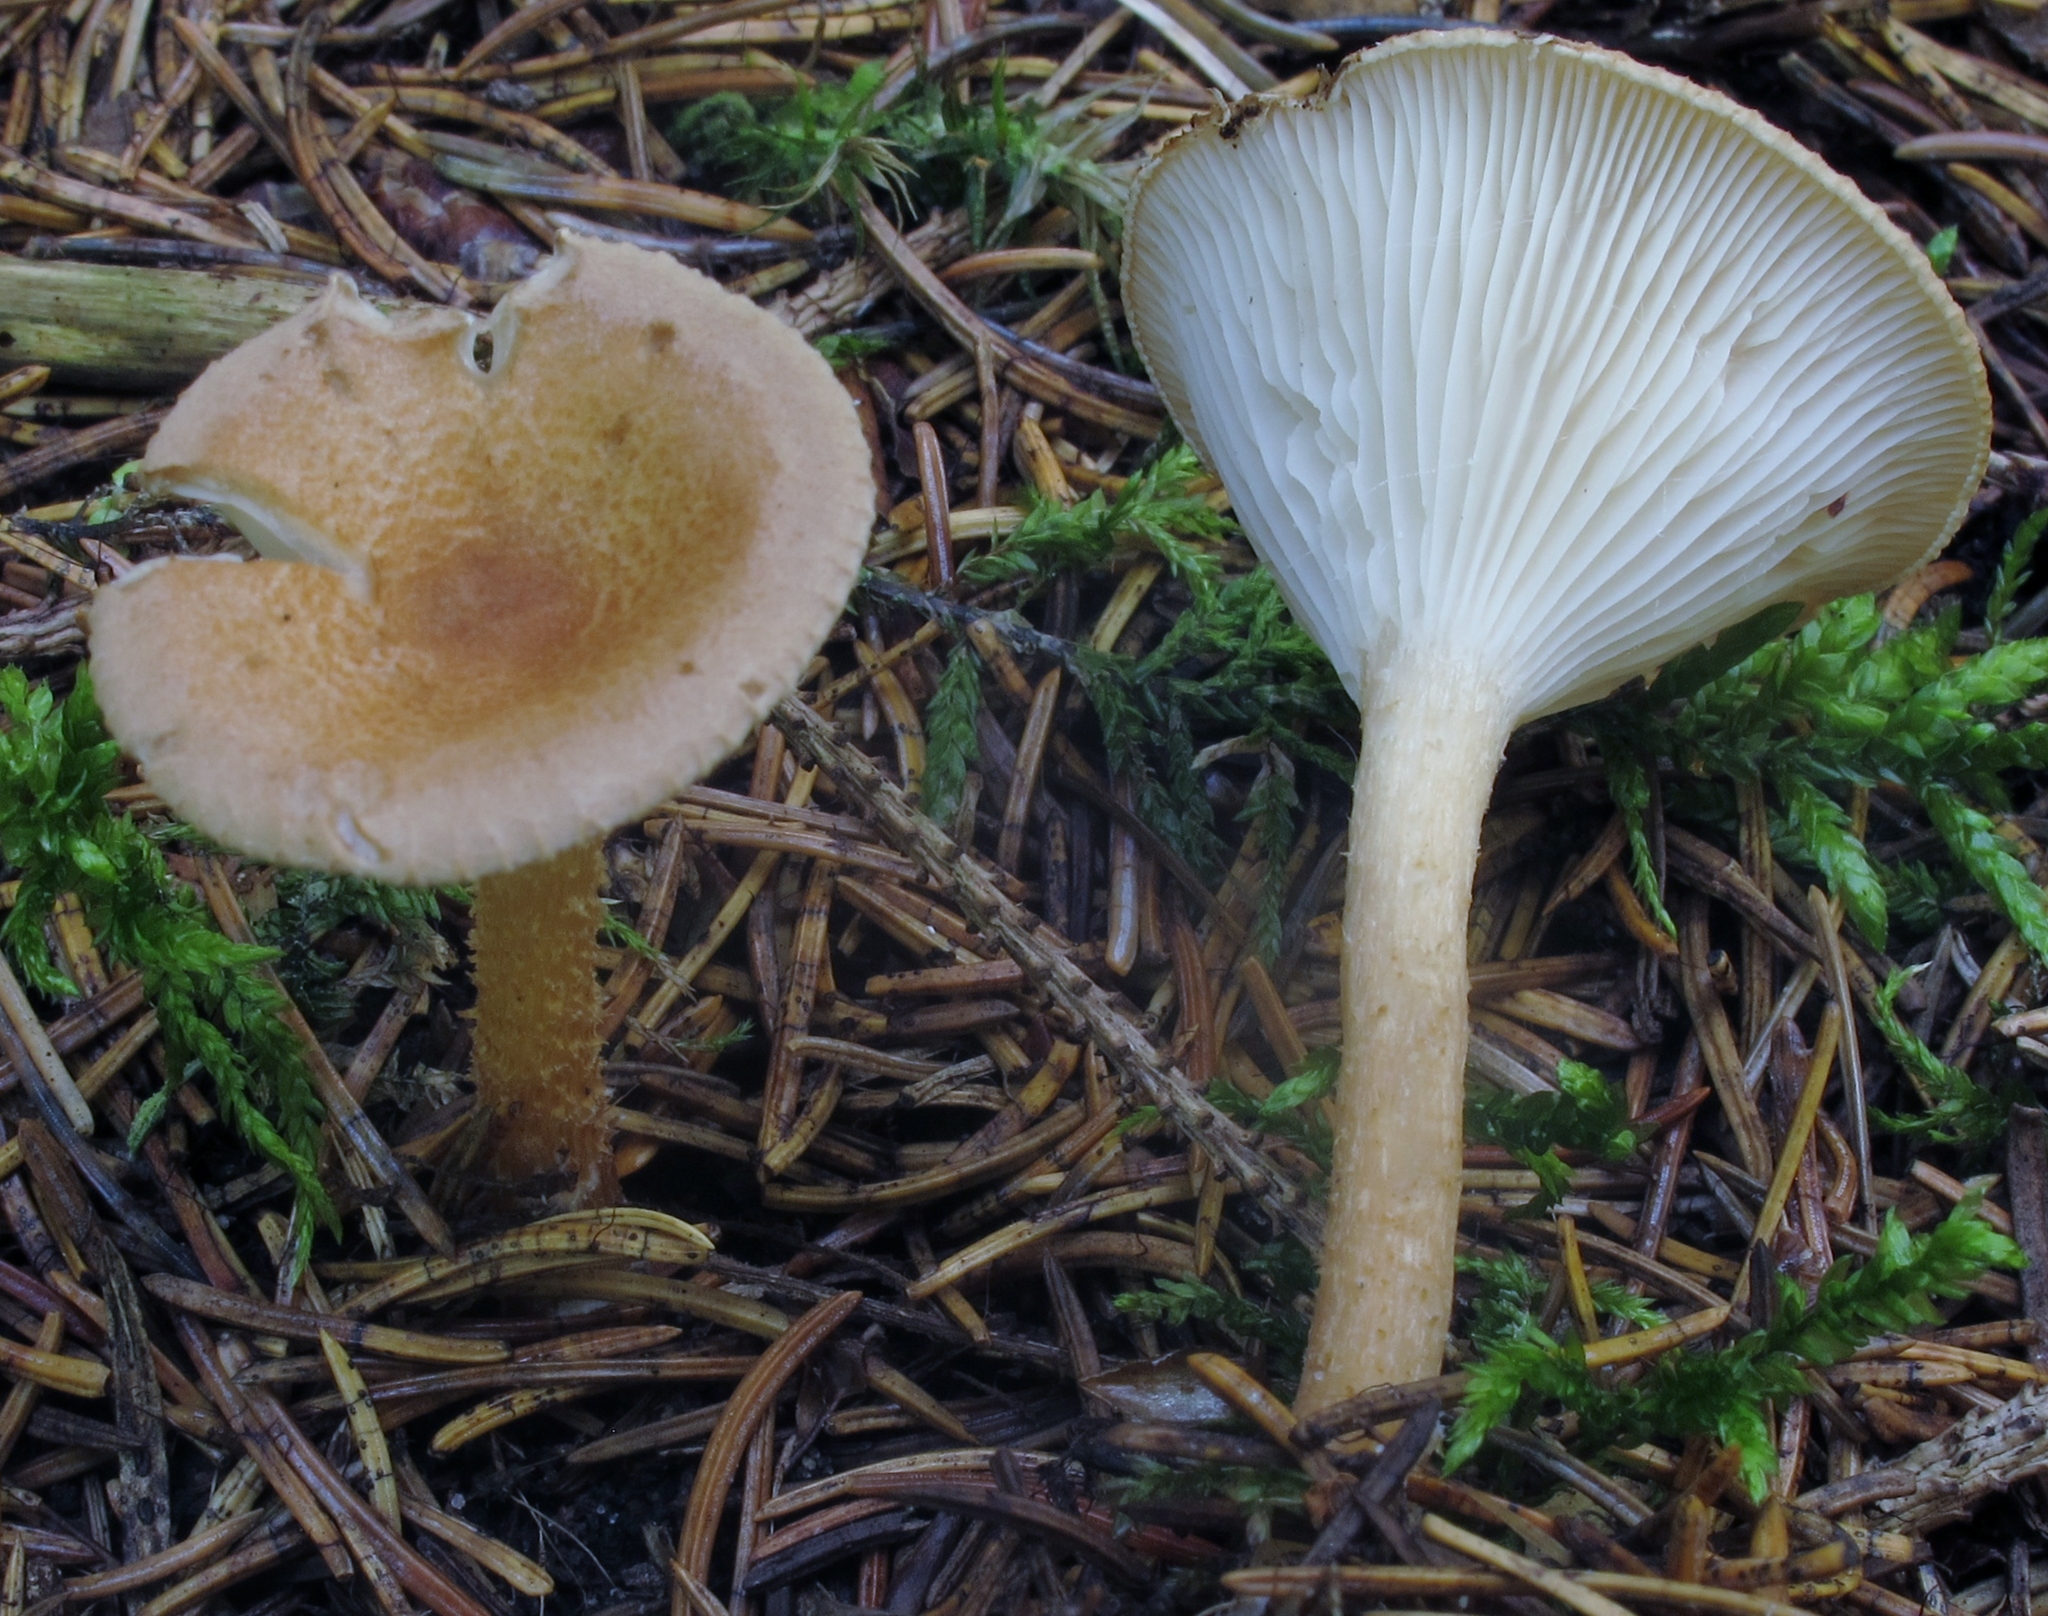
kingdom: Fungi
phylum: Basidiomycota
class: Agaricomycetes
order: Agaricales
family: Tricholomataceae
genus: Infundibulicybe
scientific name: Infundibulicybe gibba
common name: Common funnel
